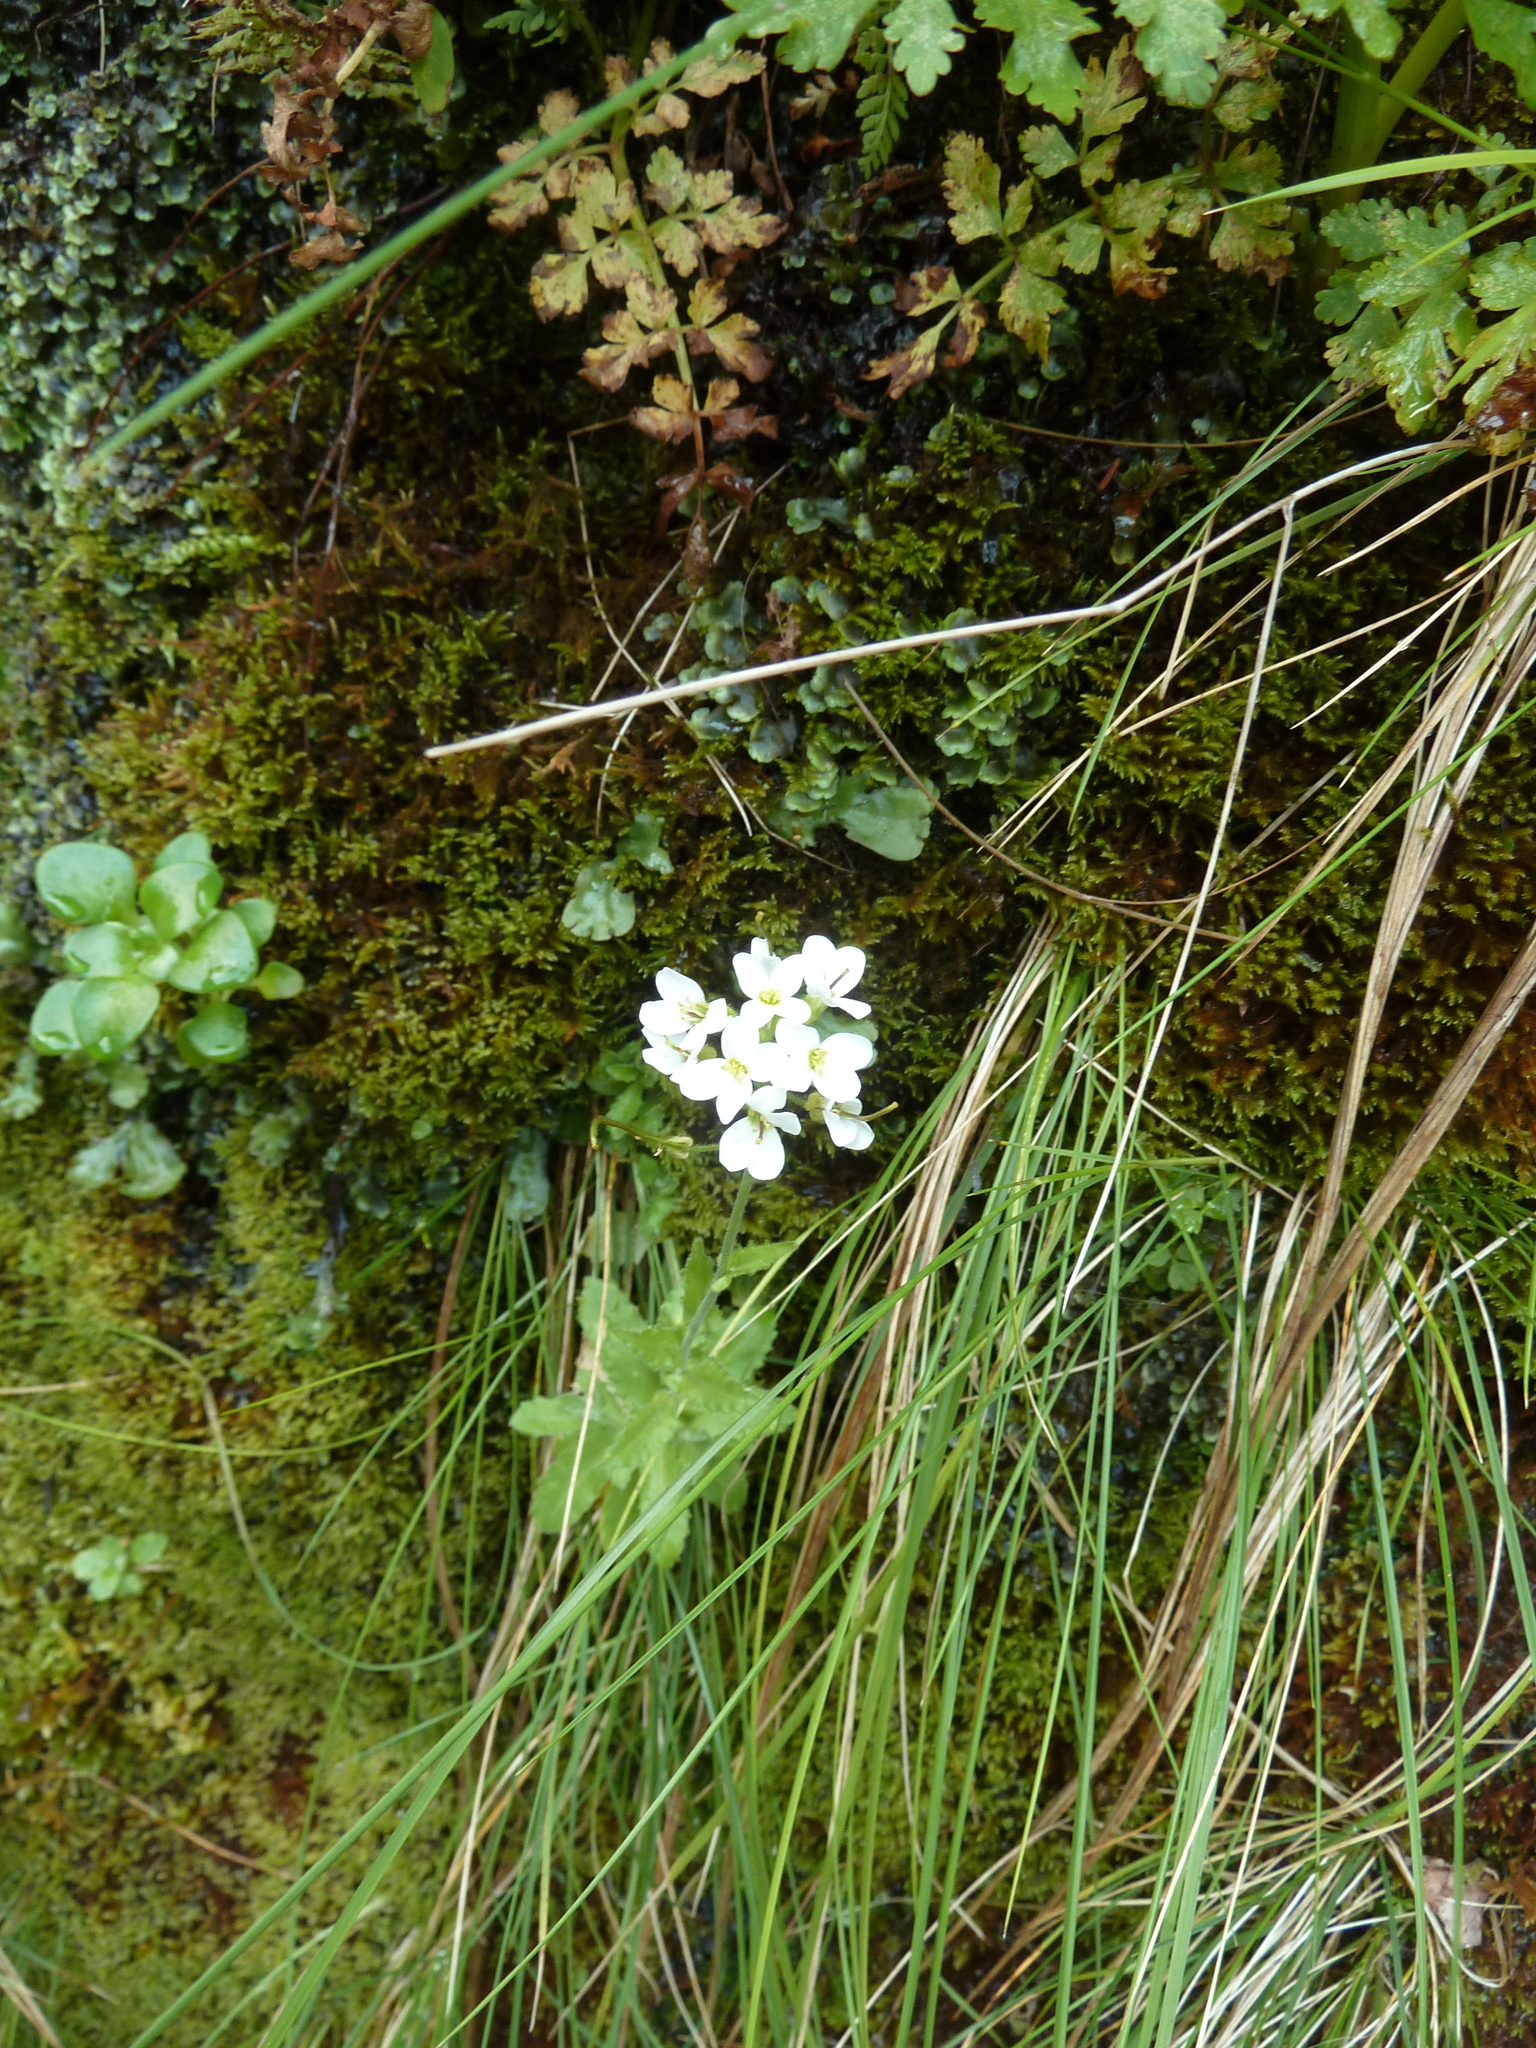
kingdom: Plantae
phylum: Tracheophyta
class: Magnoliopsida
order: Brassicales
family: Brassicaceae
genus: Arabis
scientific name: Arabis caucasica
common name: Gray rockcress
